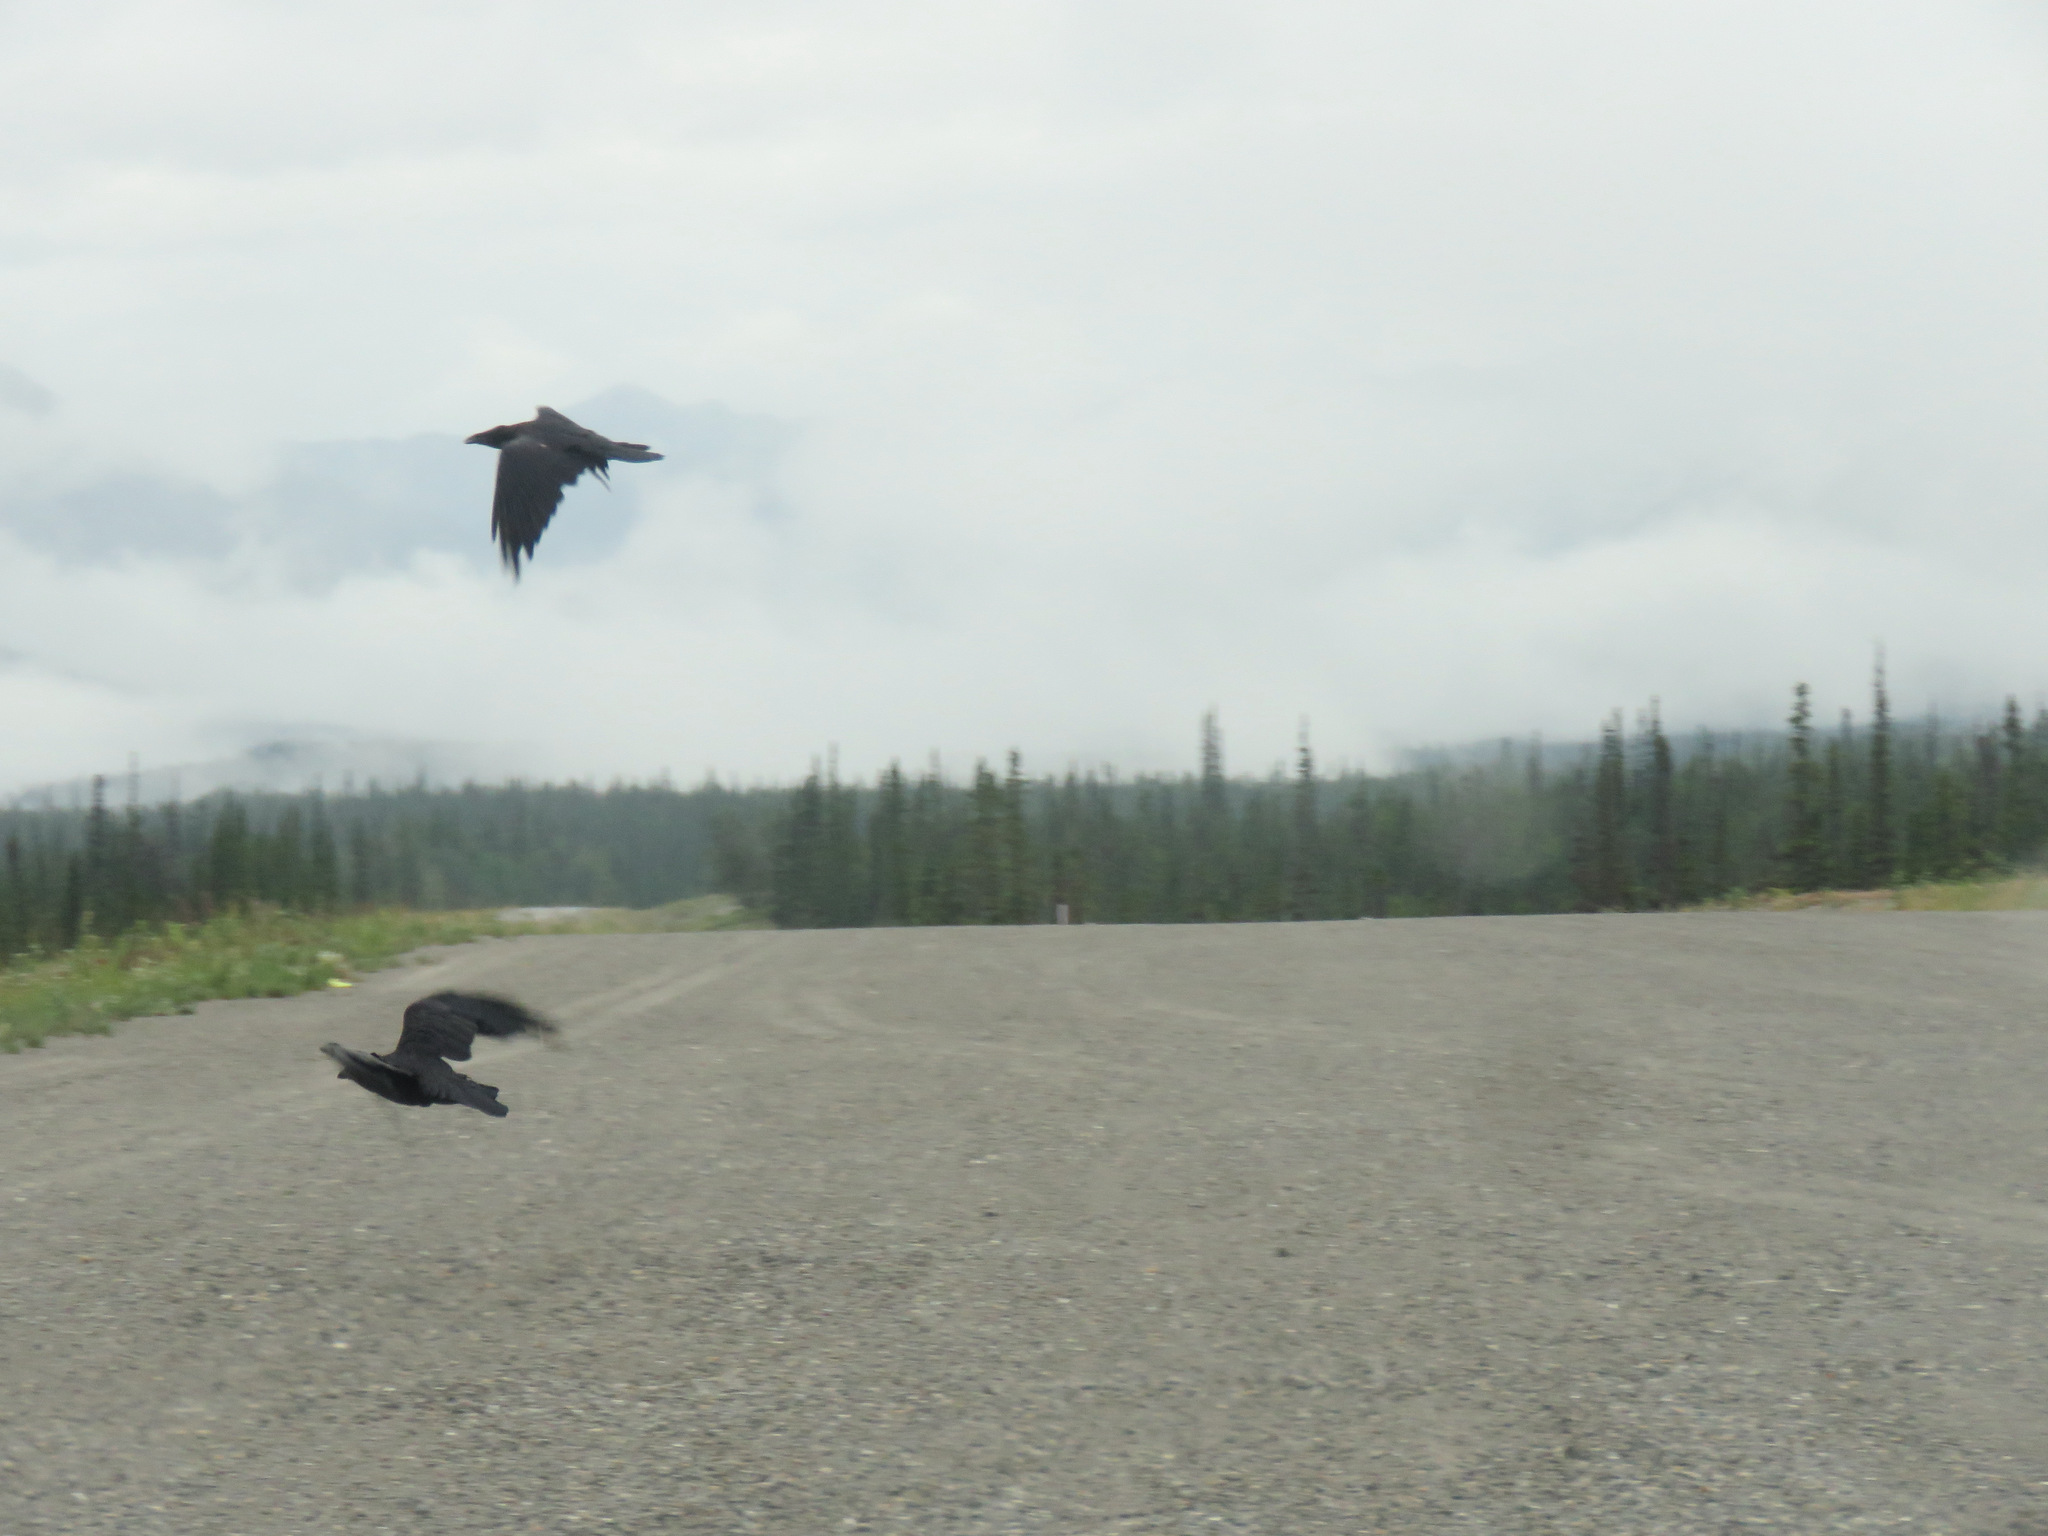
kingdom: Animalia
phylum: Chordata
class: Aves
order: Passeriformes
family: Corvidae
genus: Corvus
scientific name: Corvus corax
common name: Common raven
